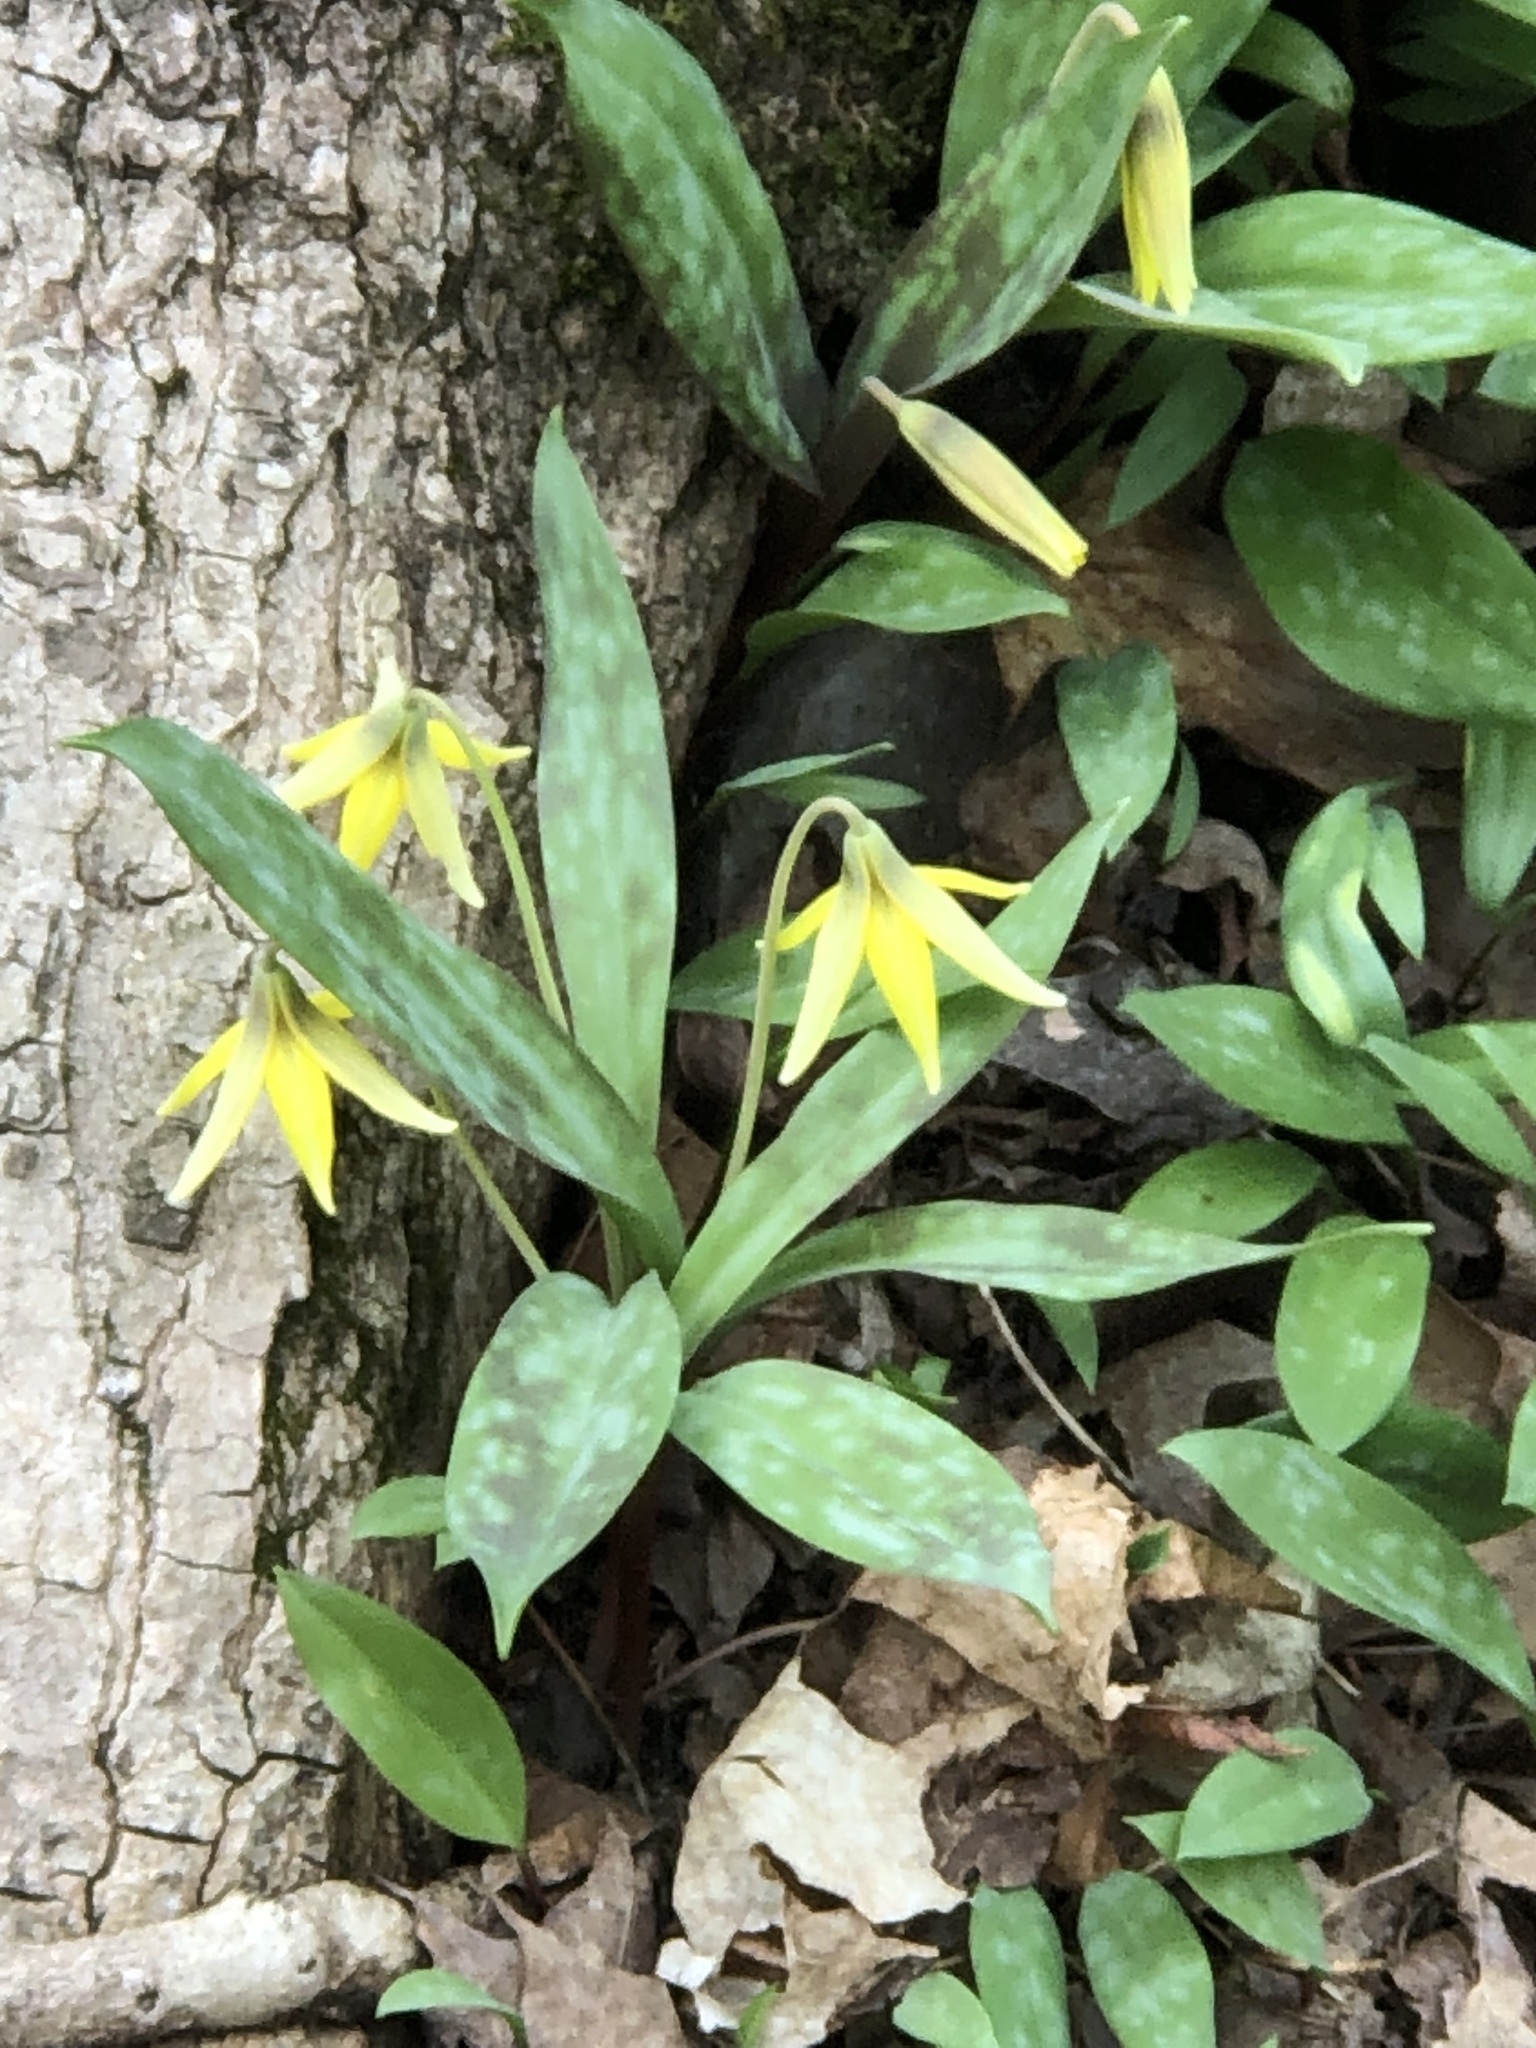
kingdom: Plantae
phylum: Tracheophyta
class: Liliopsida
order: Liliales
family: Liliaceae
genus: Erythronium
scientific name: Erythronium americanum
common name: Yellow adder's-tongue
